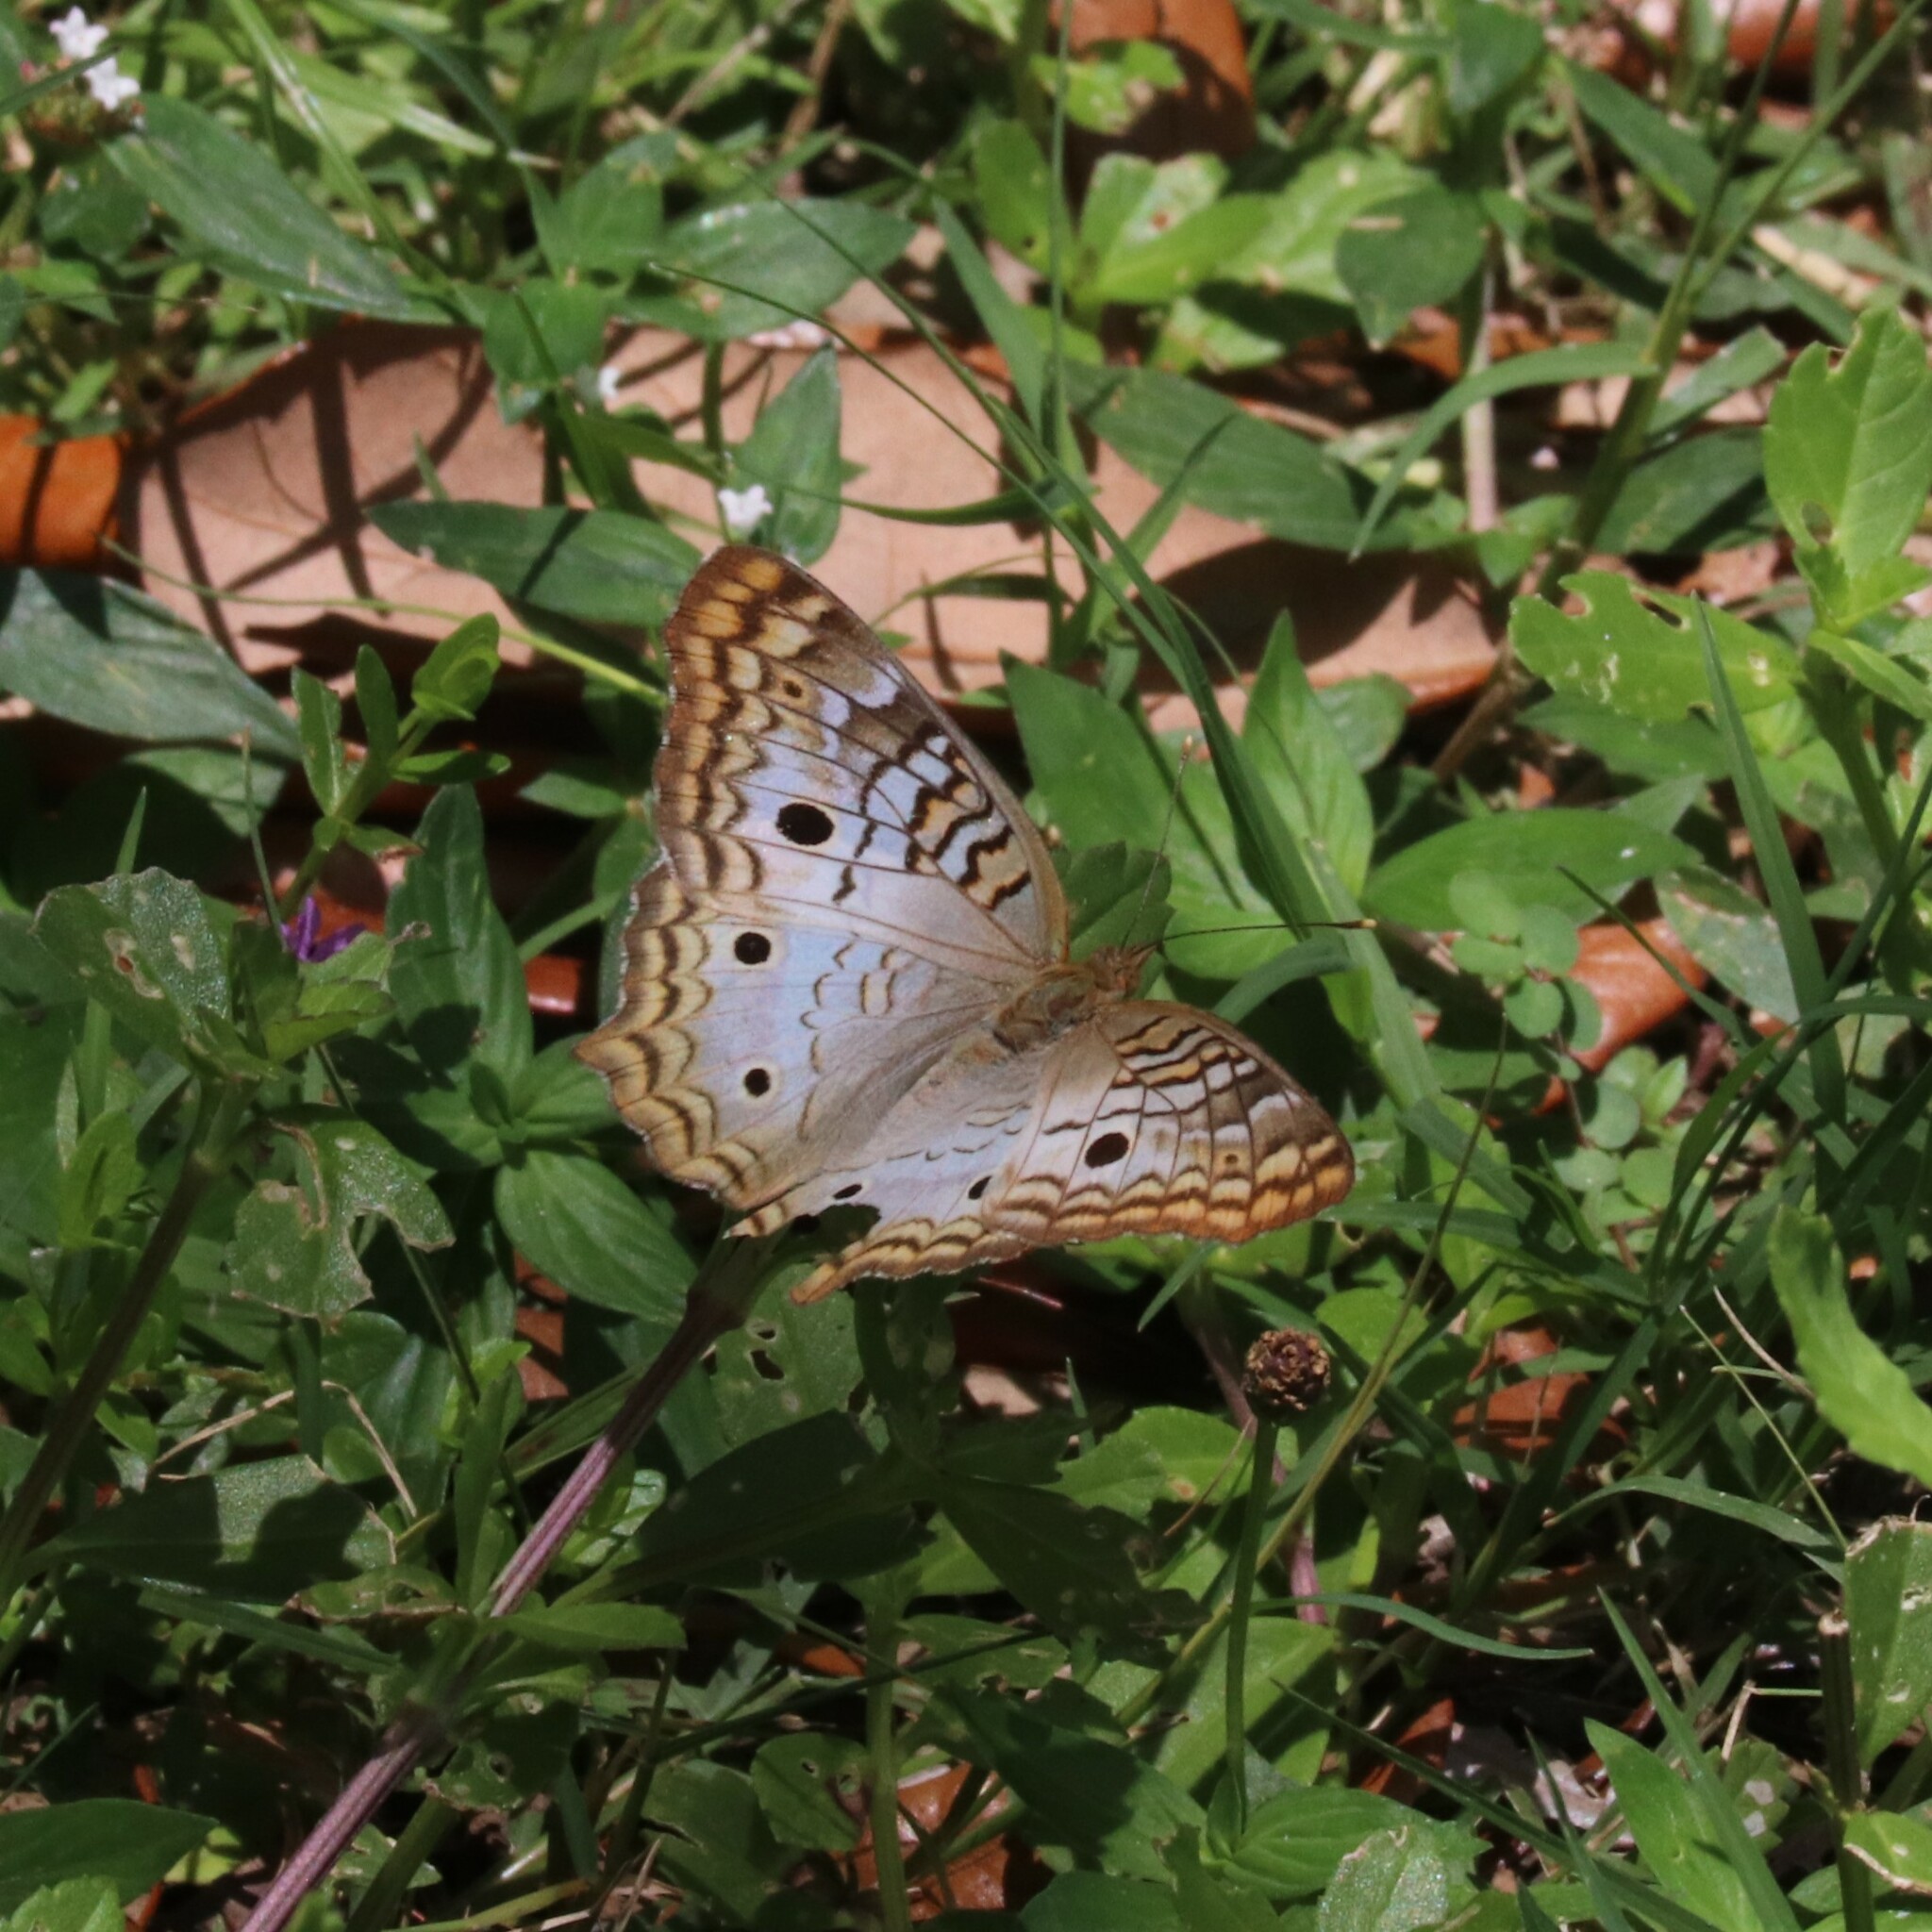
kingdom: Animalia
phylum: Arthropoda
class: Insecta
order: Lepidoptera
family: Nymphalidae
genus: Anartia
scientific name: Anartia jatrophae
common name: White peacock
